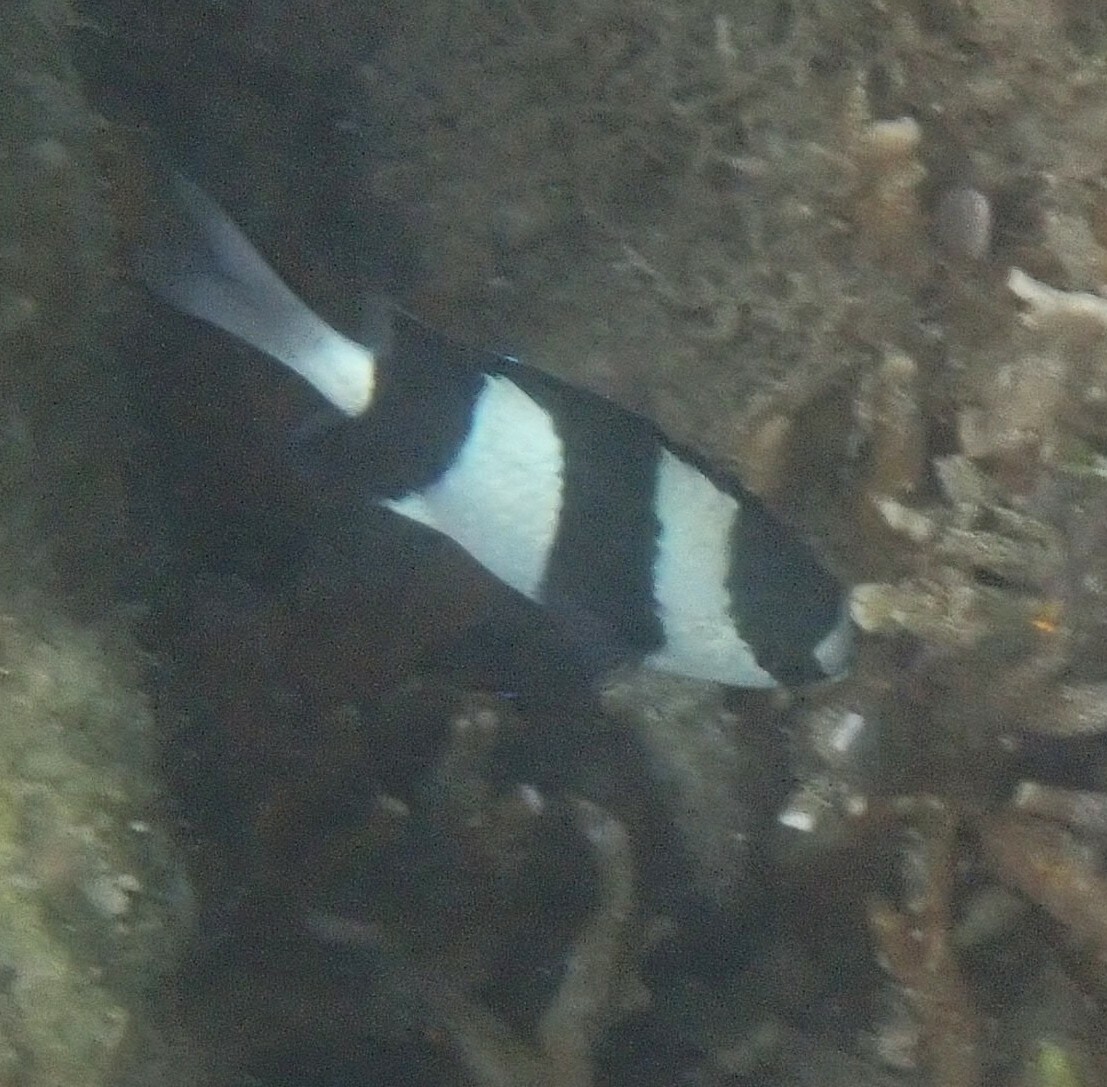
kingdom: Animalia
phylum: Chordata
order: Perciformes
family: Pomacentridae
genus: Dascyllus
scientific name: Dascyllus aruanus
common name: Humbug dascyllus
